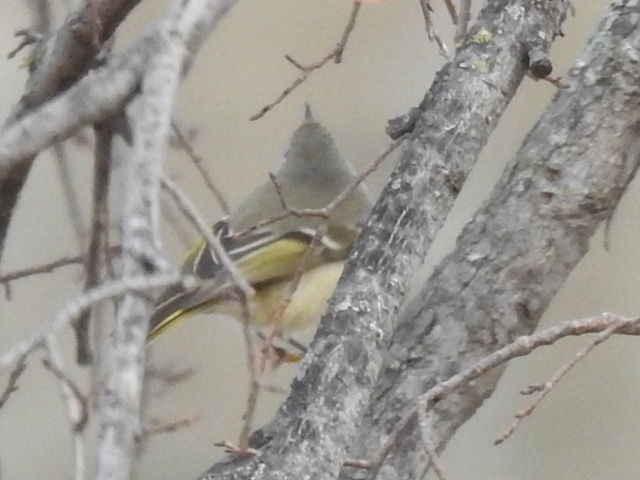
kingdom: Animalia
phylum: Chordata
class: Aves
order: Passeriformes
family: Regulidae
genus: Regulus
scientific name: Regulus calendula
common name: Ruby-crowned kinglet
